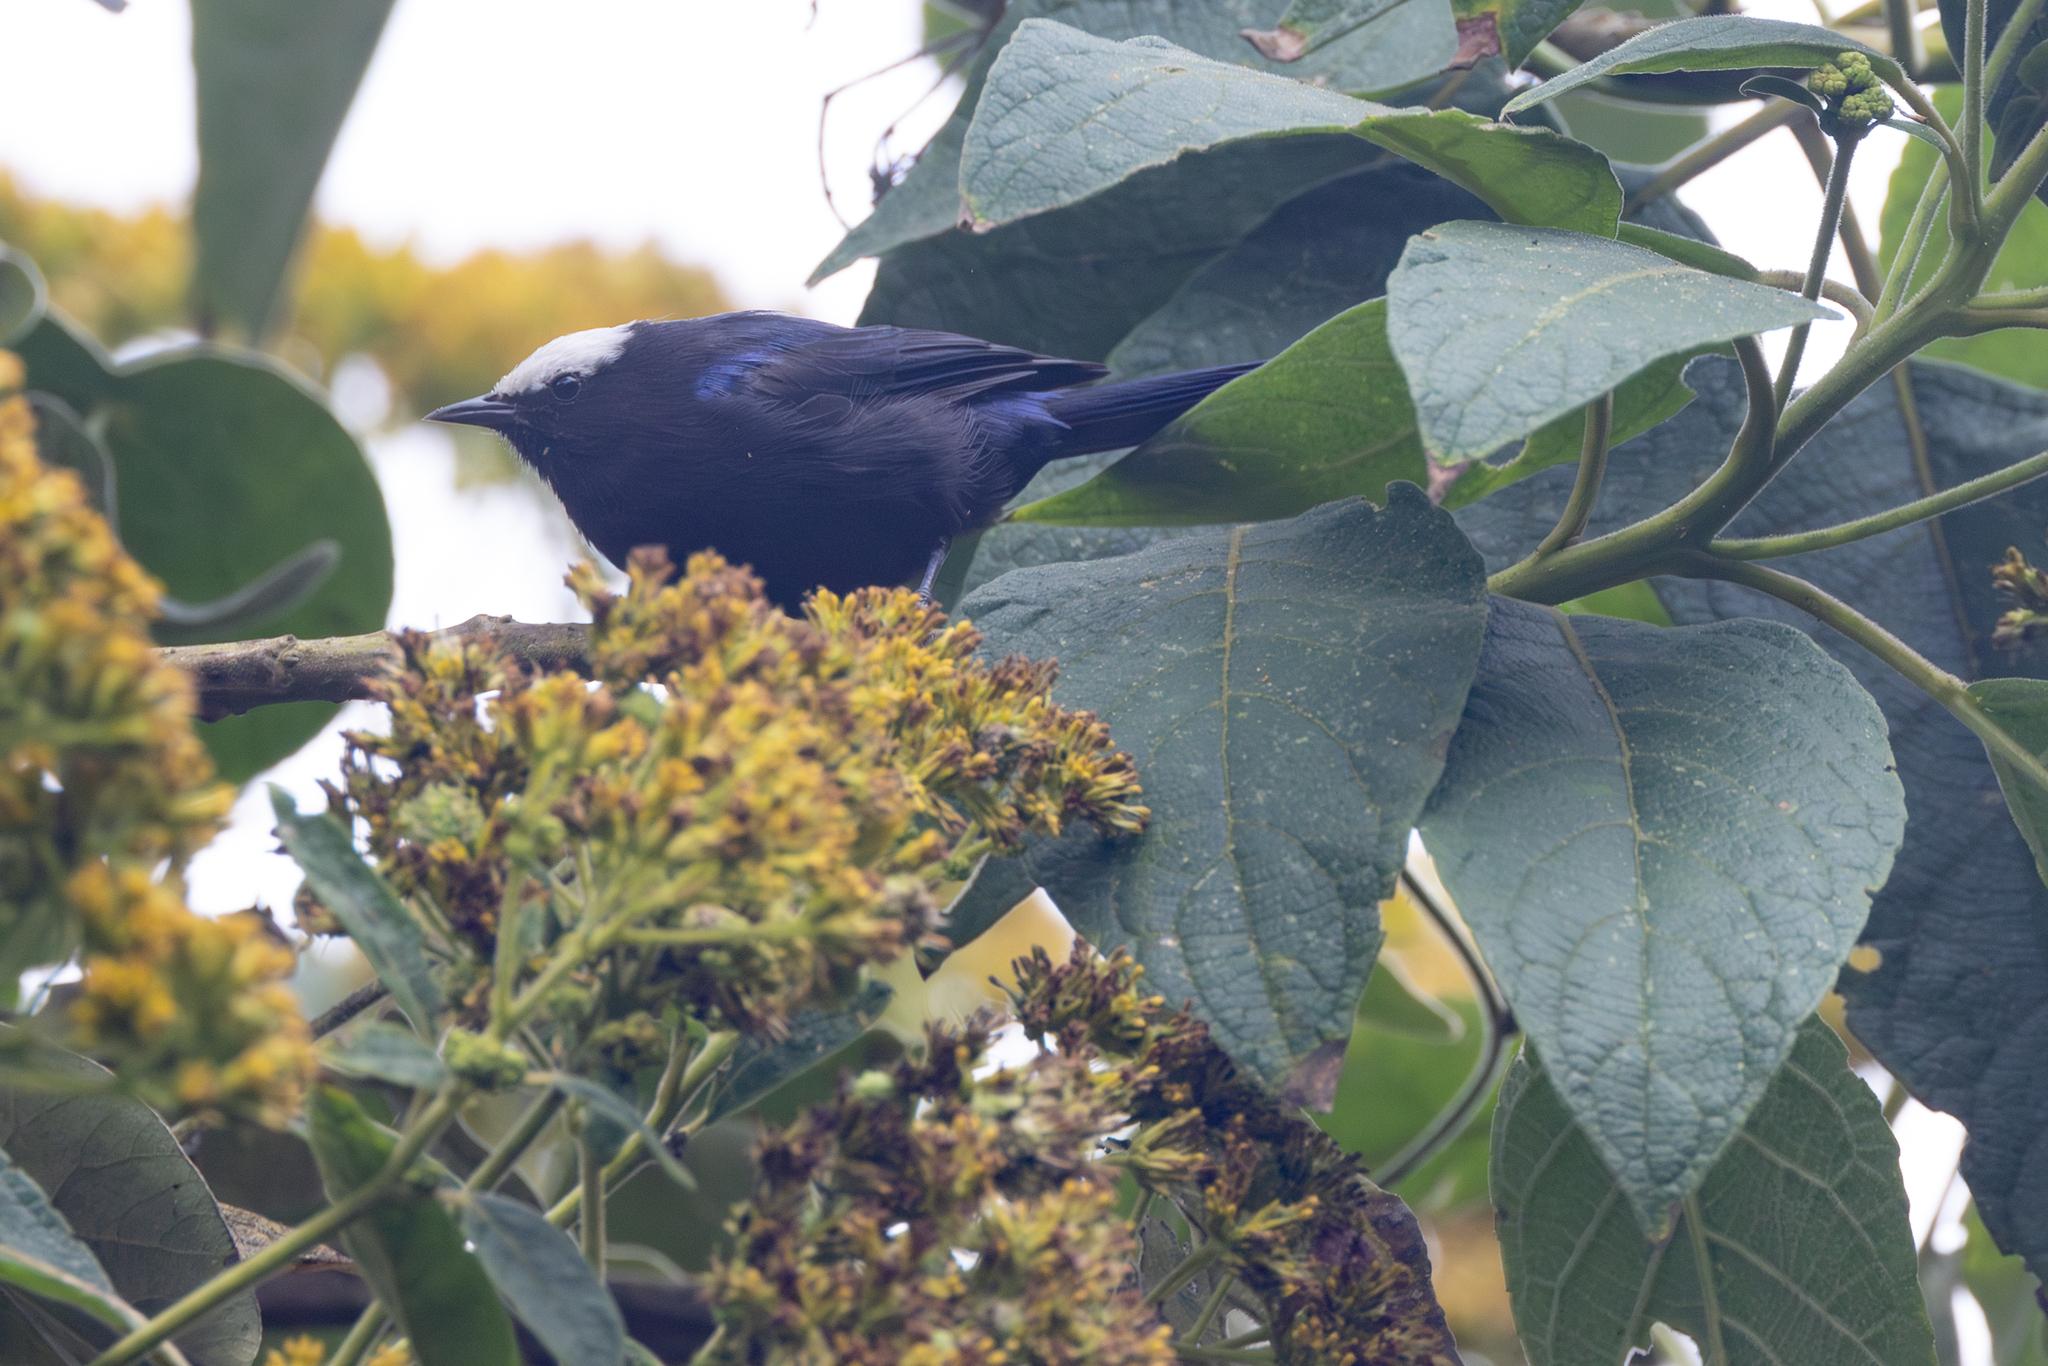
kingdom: Animalia
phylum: Chordata
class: Aves
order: Passeriformes
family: Thraupidae
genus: Conirostrum
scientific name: Conirostrum albifrons
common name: Capped conebill
